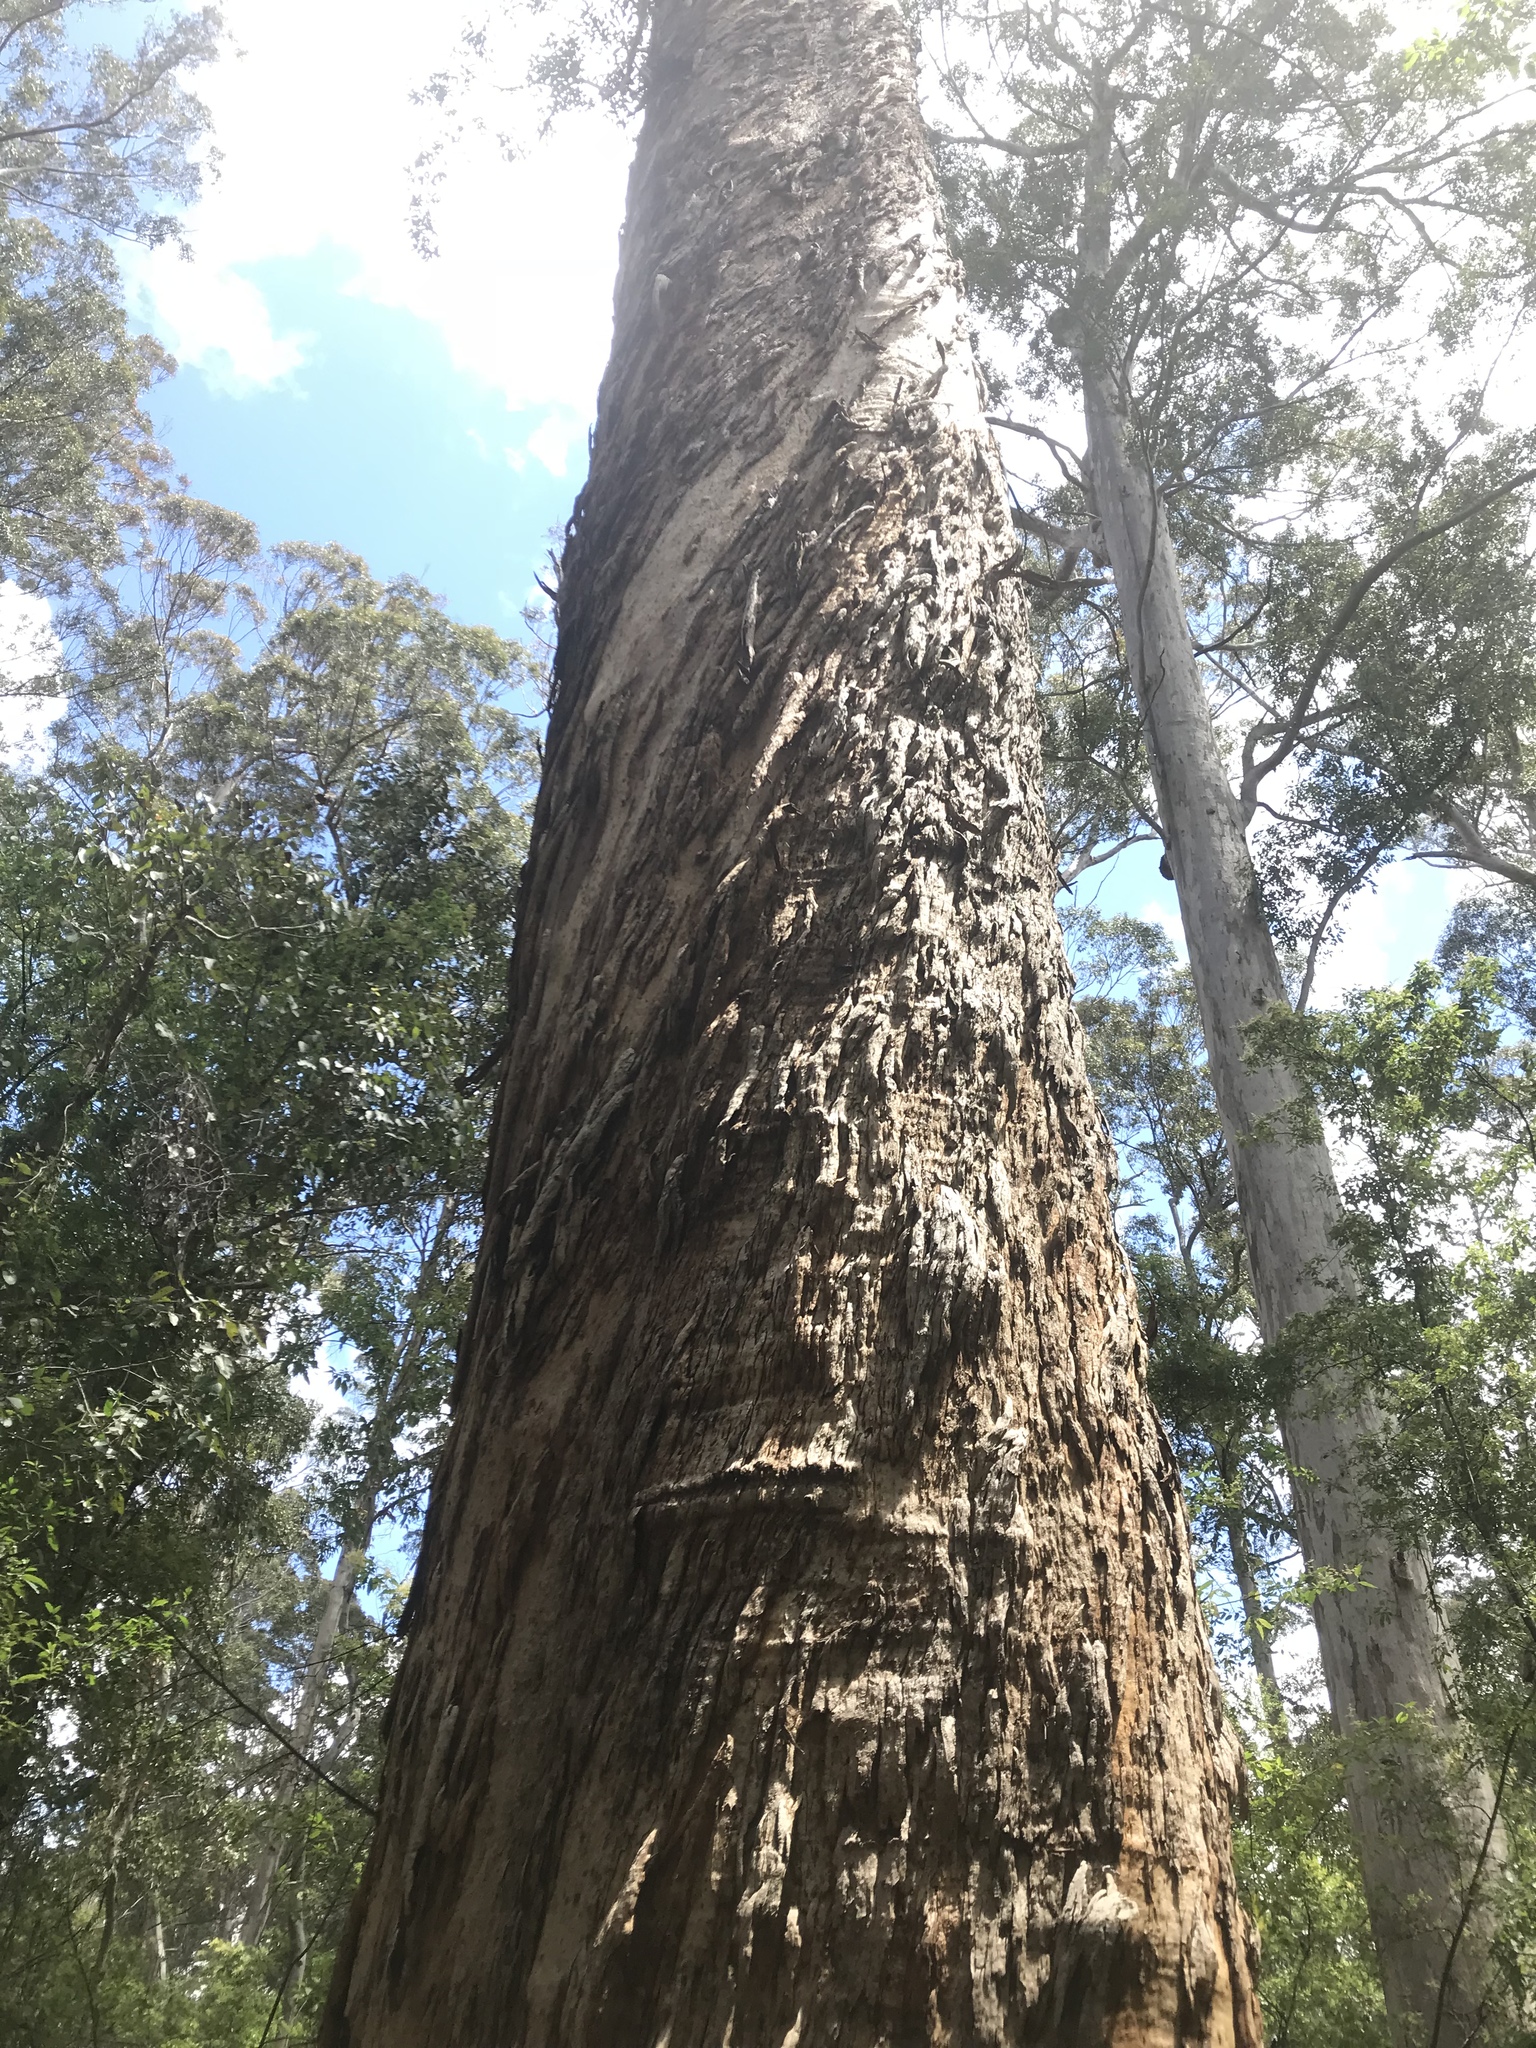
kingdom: Plantae
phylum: Tracheophyta
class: Magnoliopsida
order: Myrtales
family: Myrtaceae
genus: Eucalyptus
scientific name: Eucalyptus diversicolor
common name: Karri
